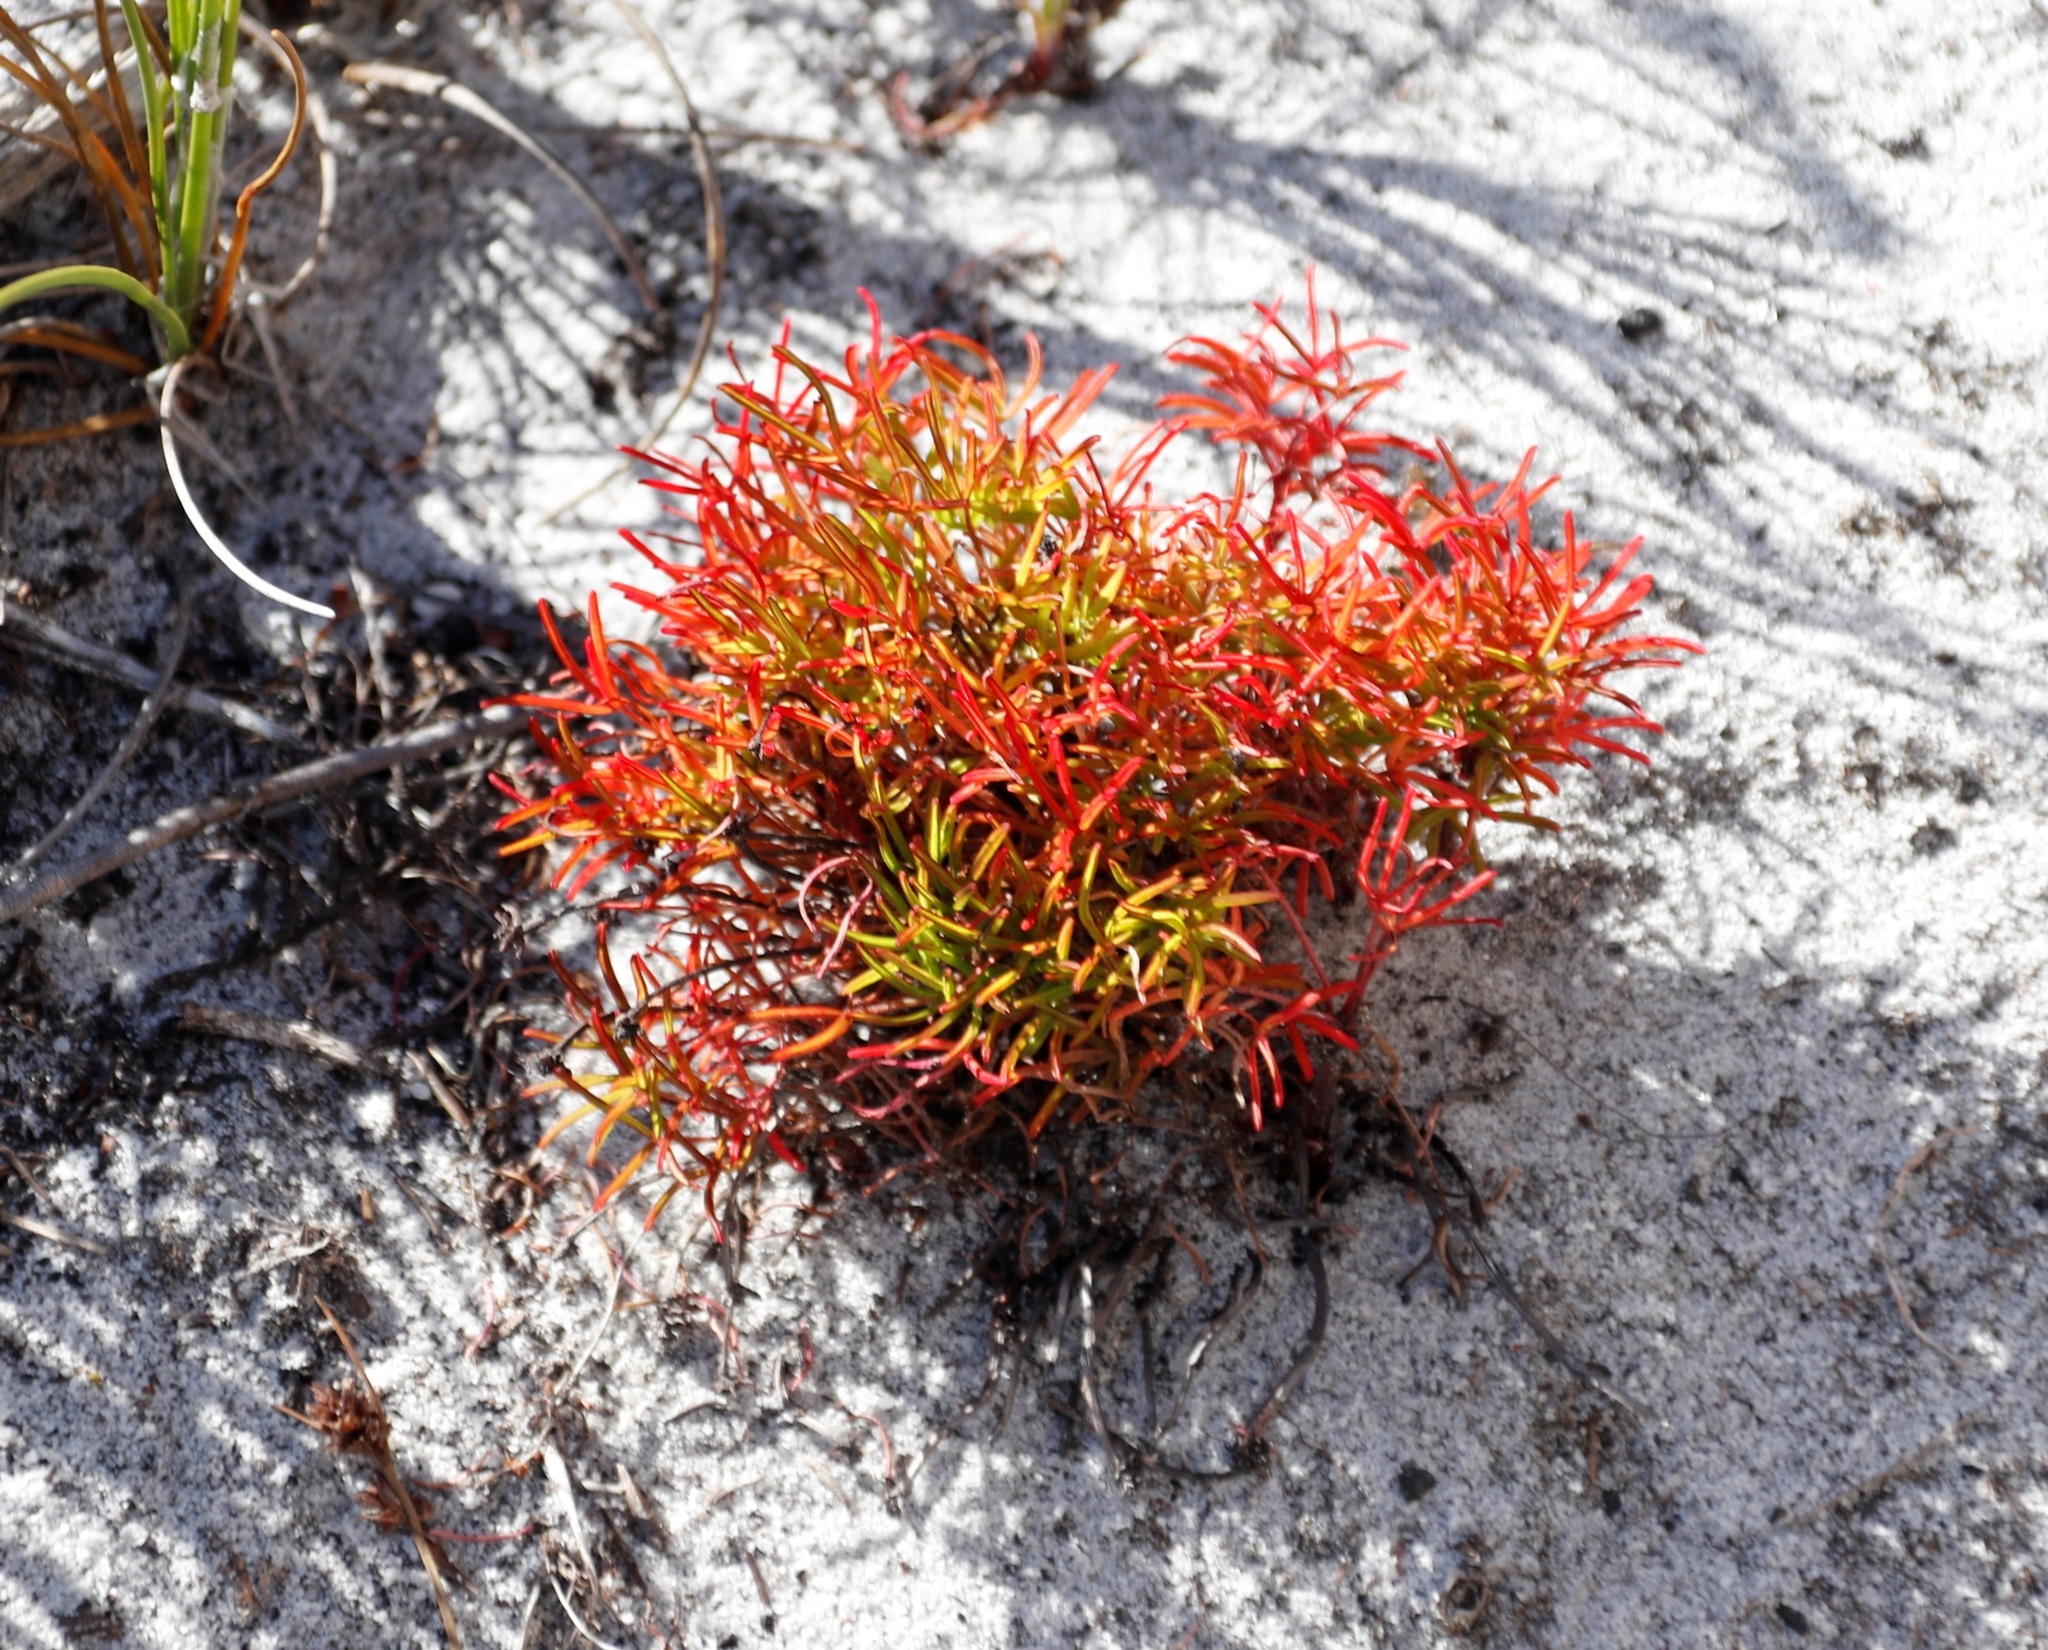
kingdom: Plantae
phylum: Tracheophyta
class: Magnoliopsida
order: Oxalidales
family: Oxalidaceae
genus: Oxalis
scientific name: Oxalis polyphylla
